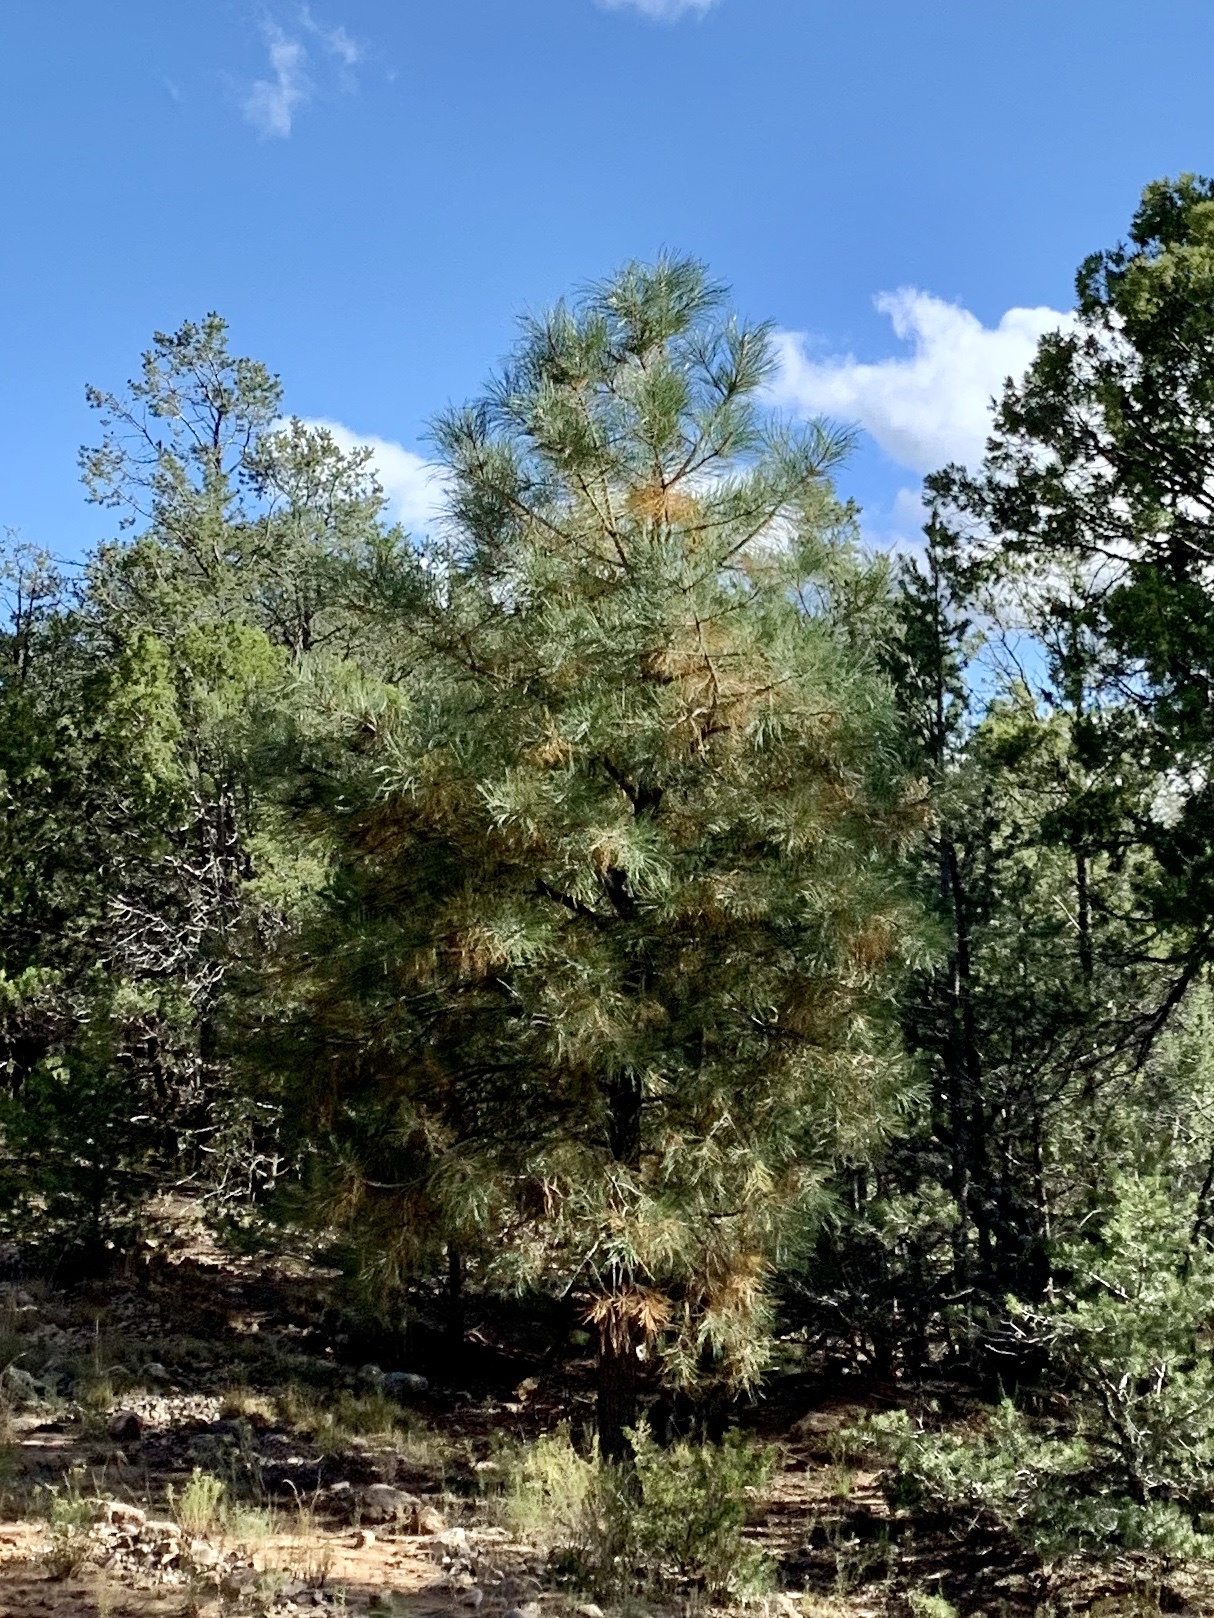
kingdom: Plantae
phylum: Tracheophyta
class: Pinopsida
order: Pinales
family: Pinaceae
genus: Pinus
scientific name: Pinus ponderosa
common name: Western yellow-pine
